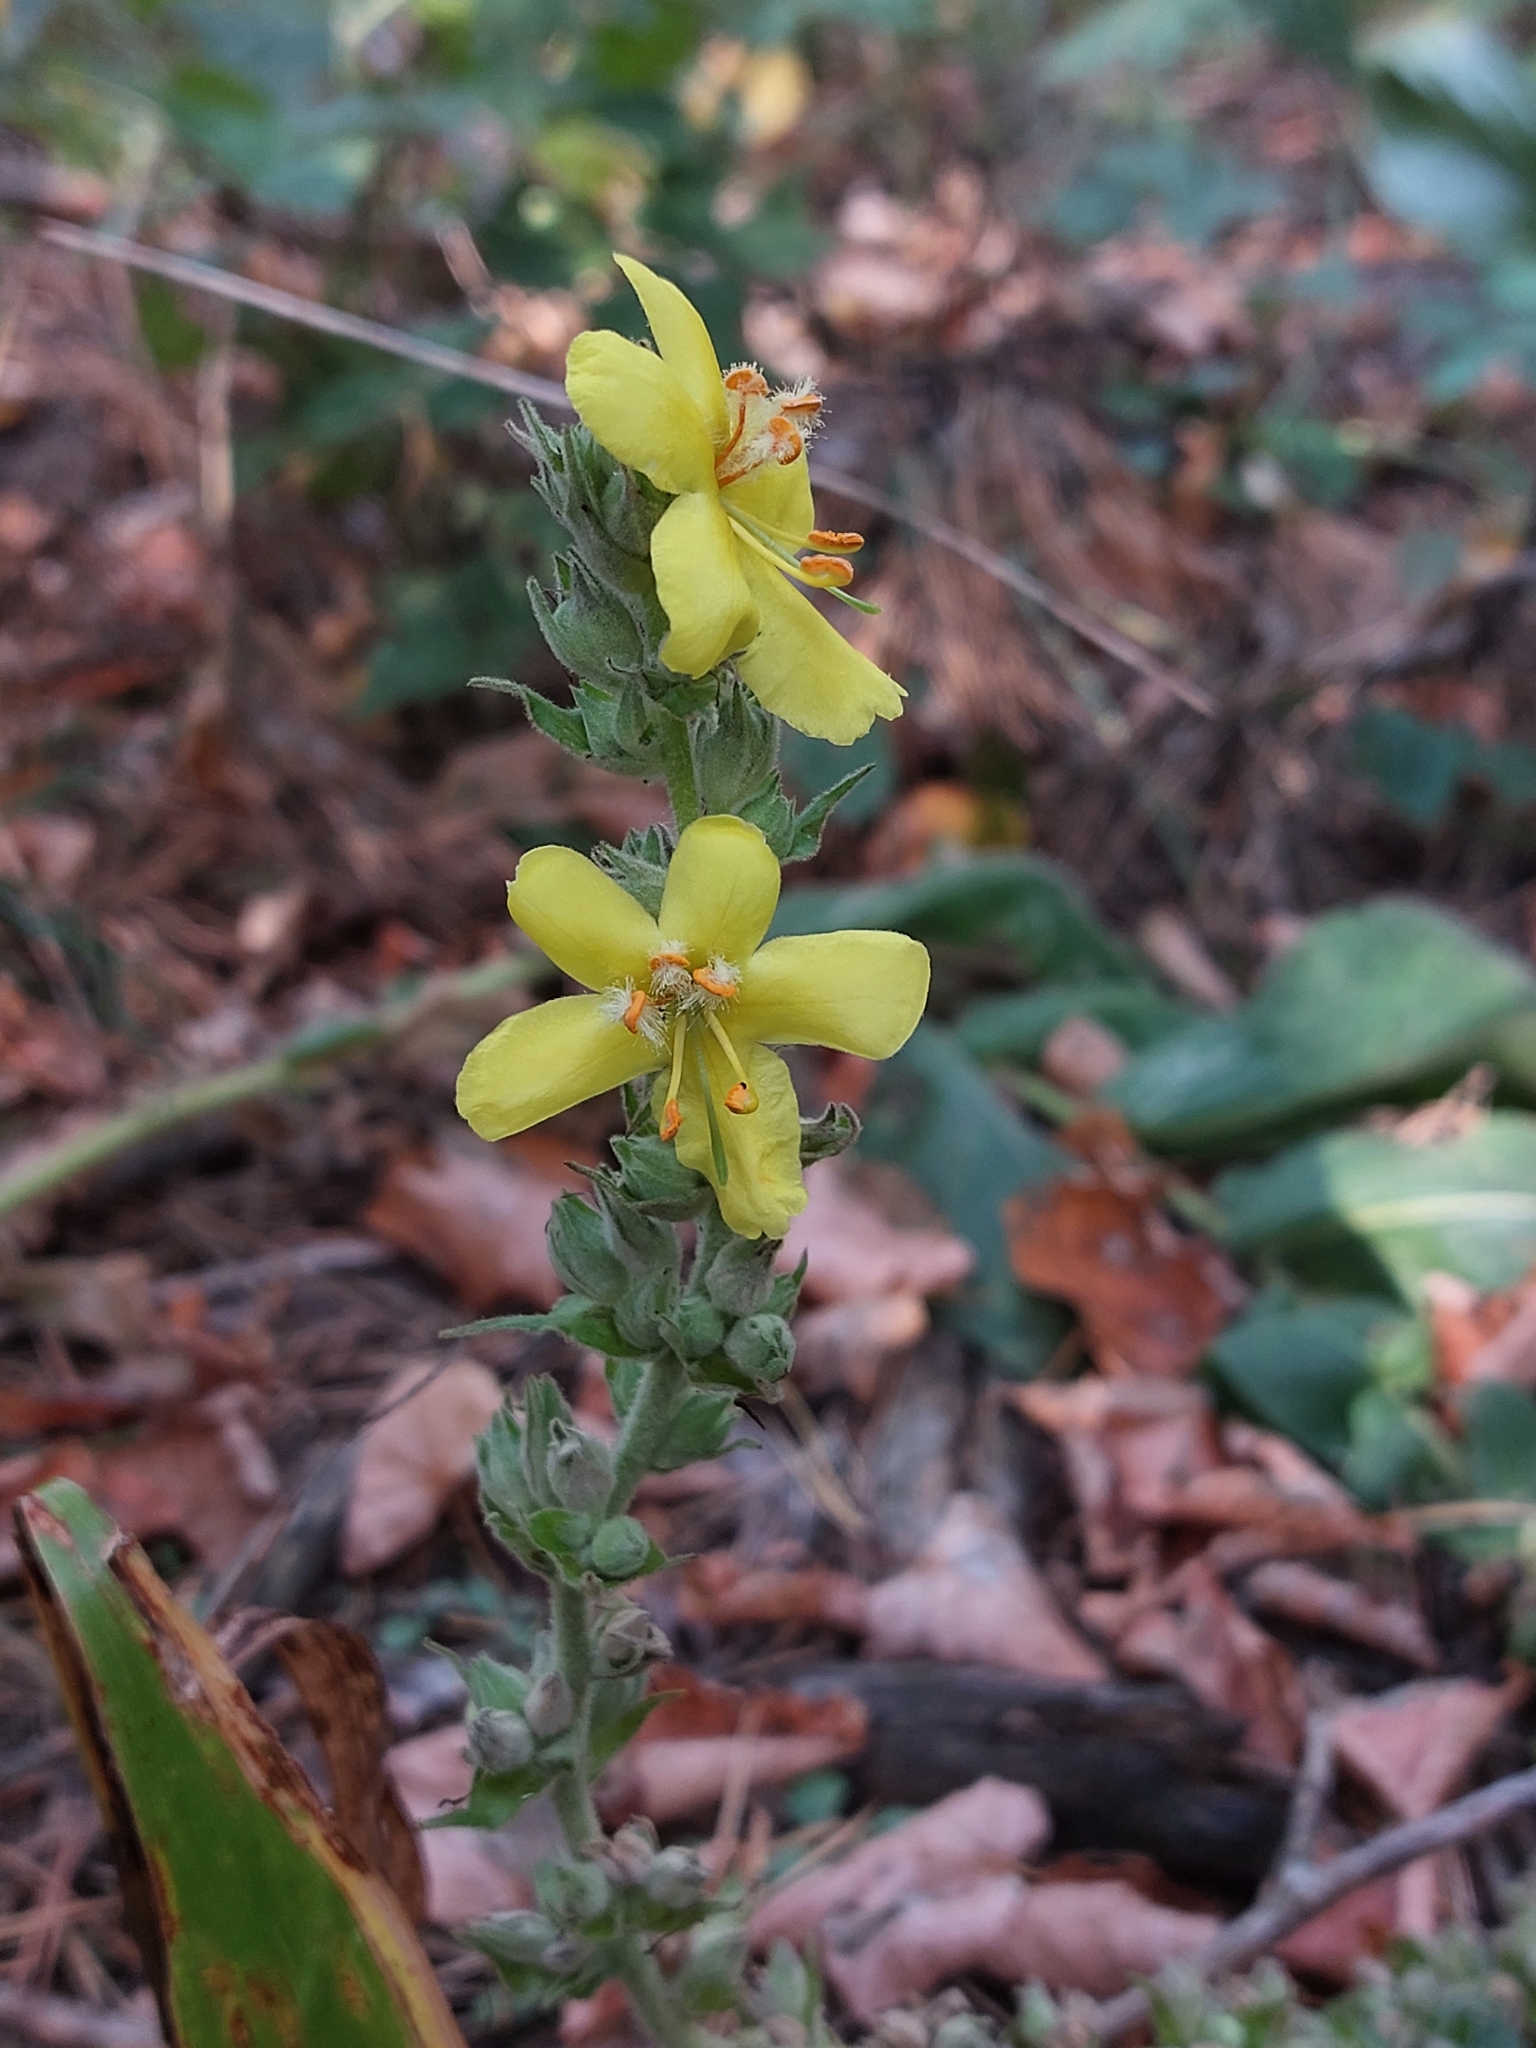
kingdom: Plantae
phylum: Tracheophyta
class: Magnoliopsida
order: Lamiales
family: Scrophulariaceae
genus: Verbascum
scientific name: Verbascum phlomoides
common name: Orange mullein
